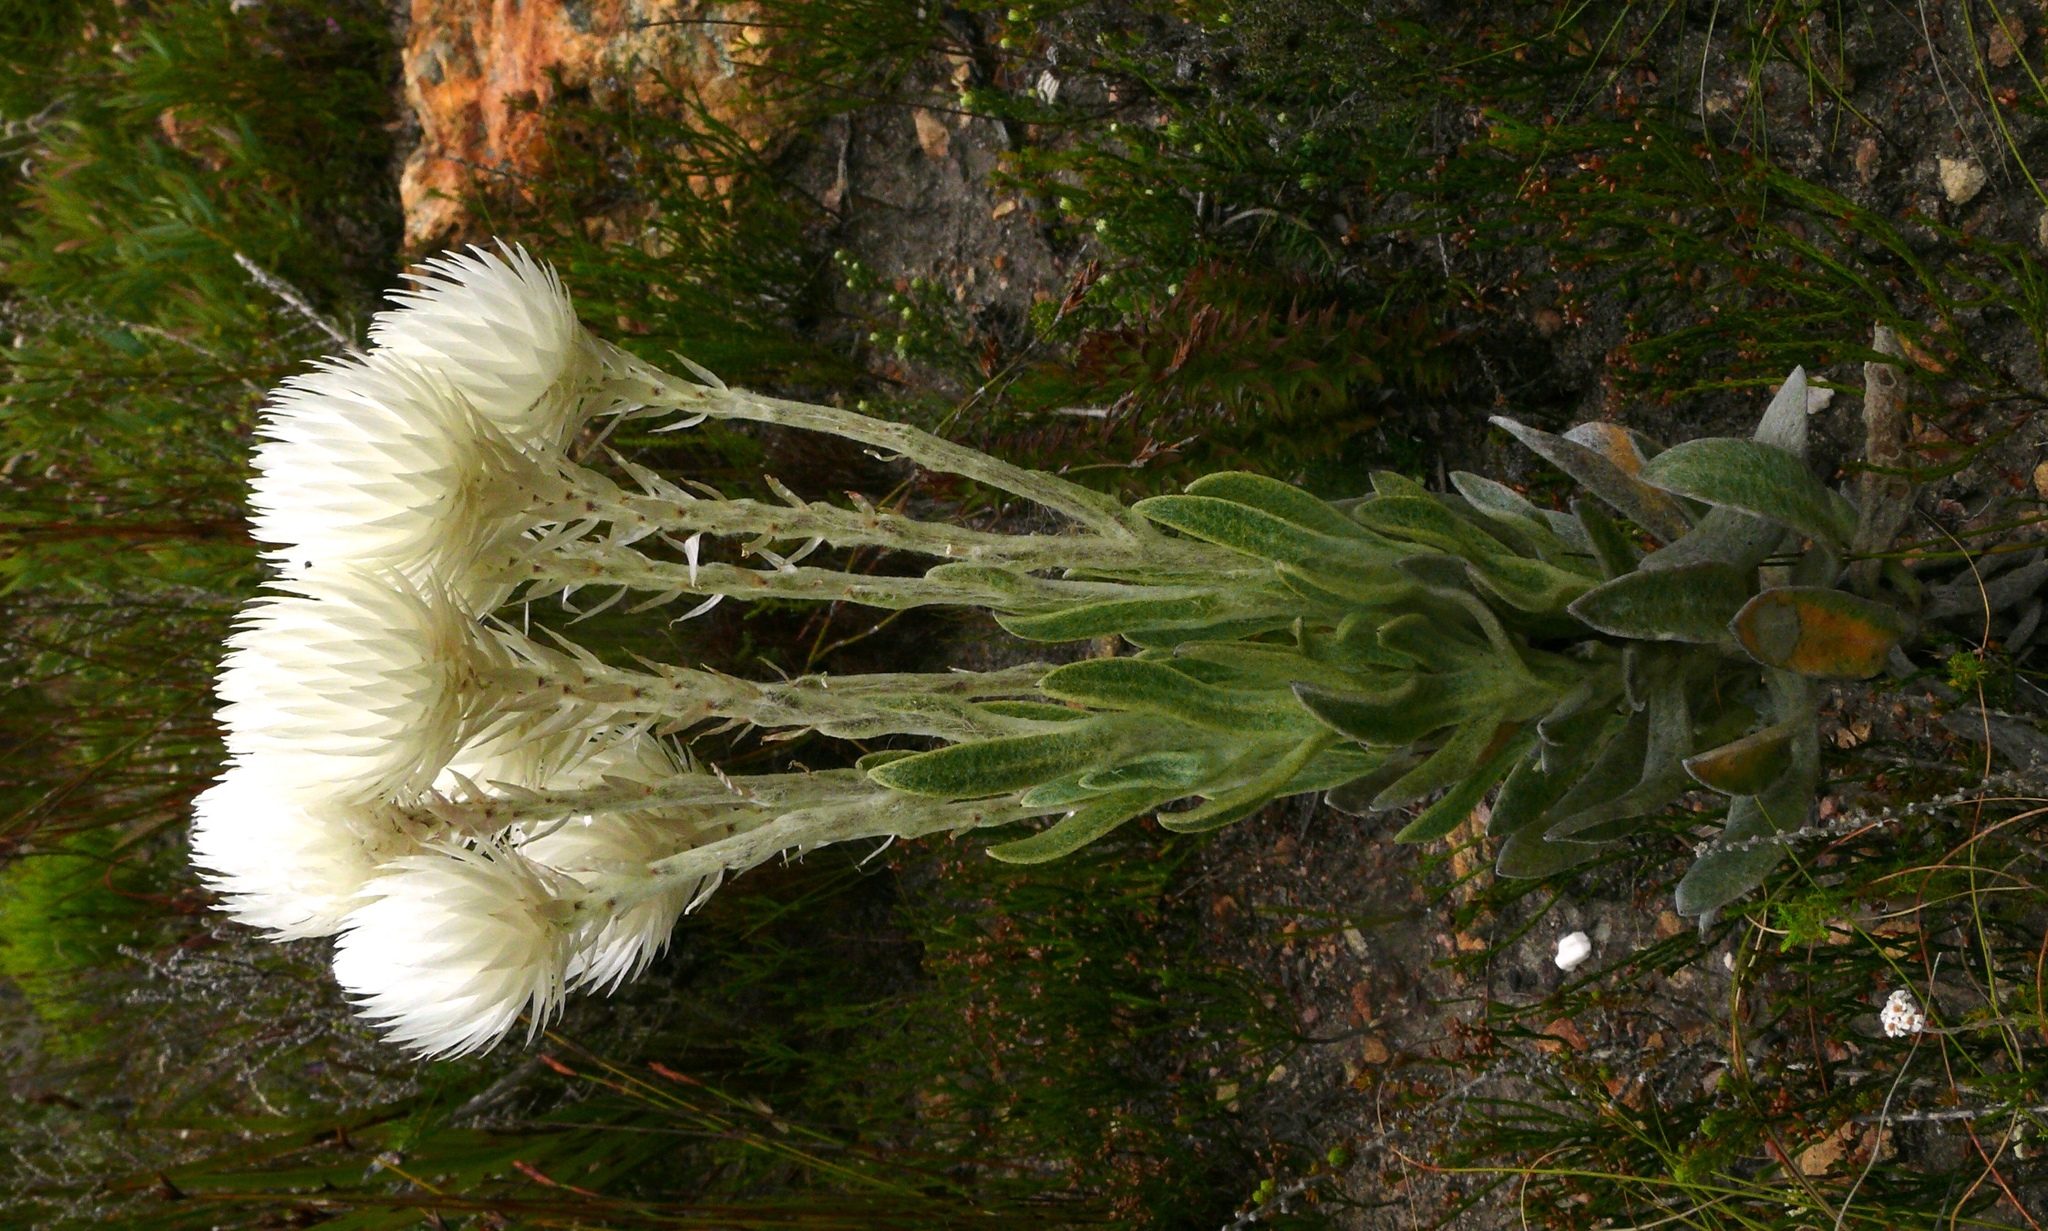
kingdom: Plantae
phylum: Tracheophyta
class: Magnoliopsida
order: Asterales
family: Asteraceae
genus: Syncarpha
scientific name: Syncarpha vestita
